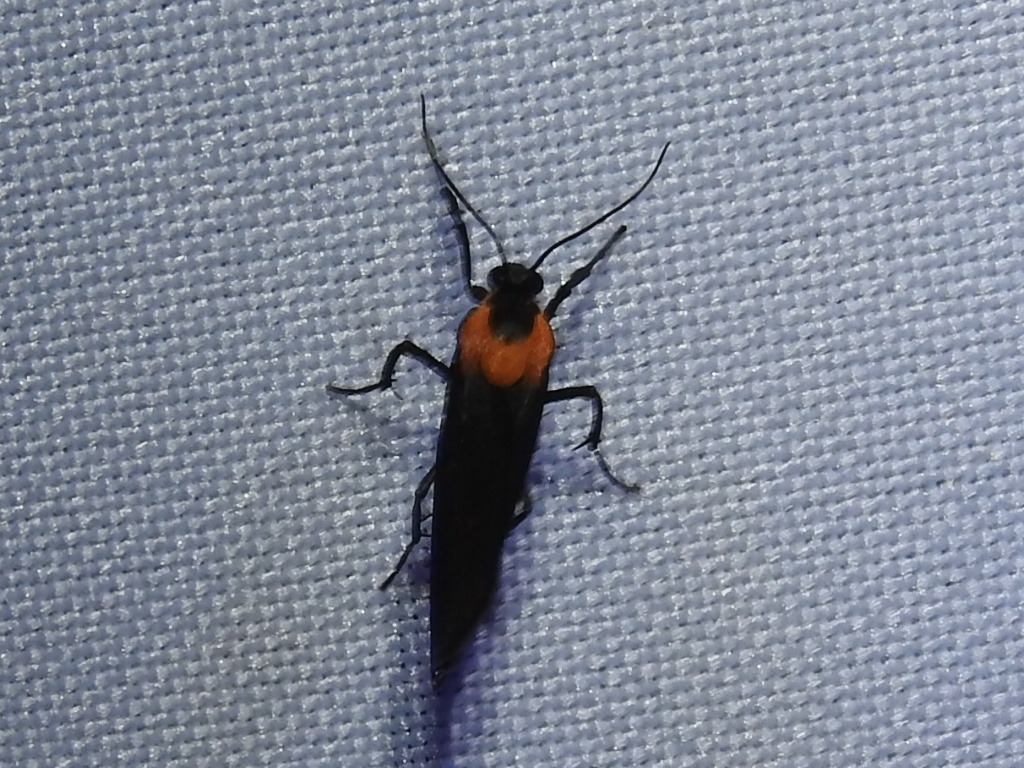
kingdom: Animalia
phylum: Arthropoda
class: Insecta
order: Lepidoptera
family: Erebidae
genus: Odozana
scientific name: Odozana sixola
